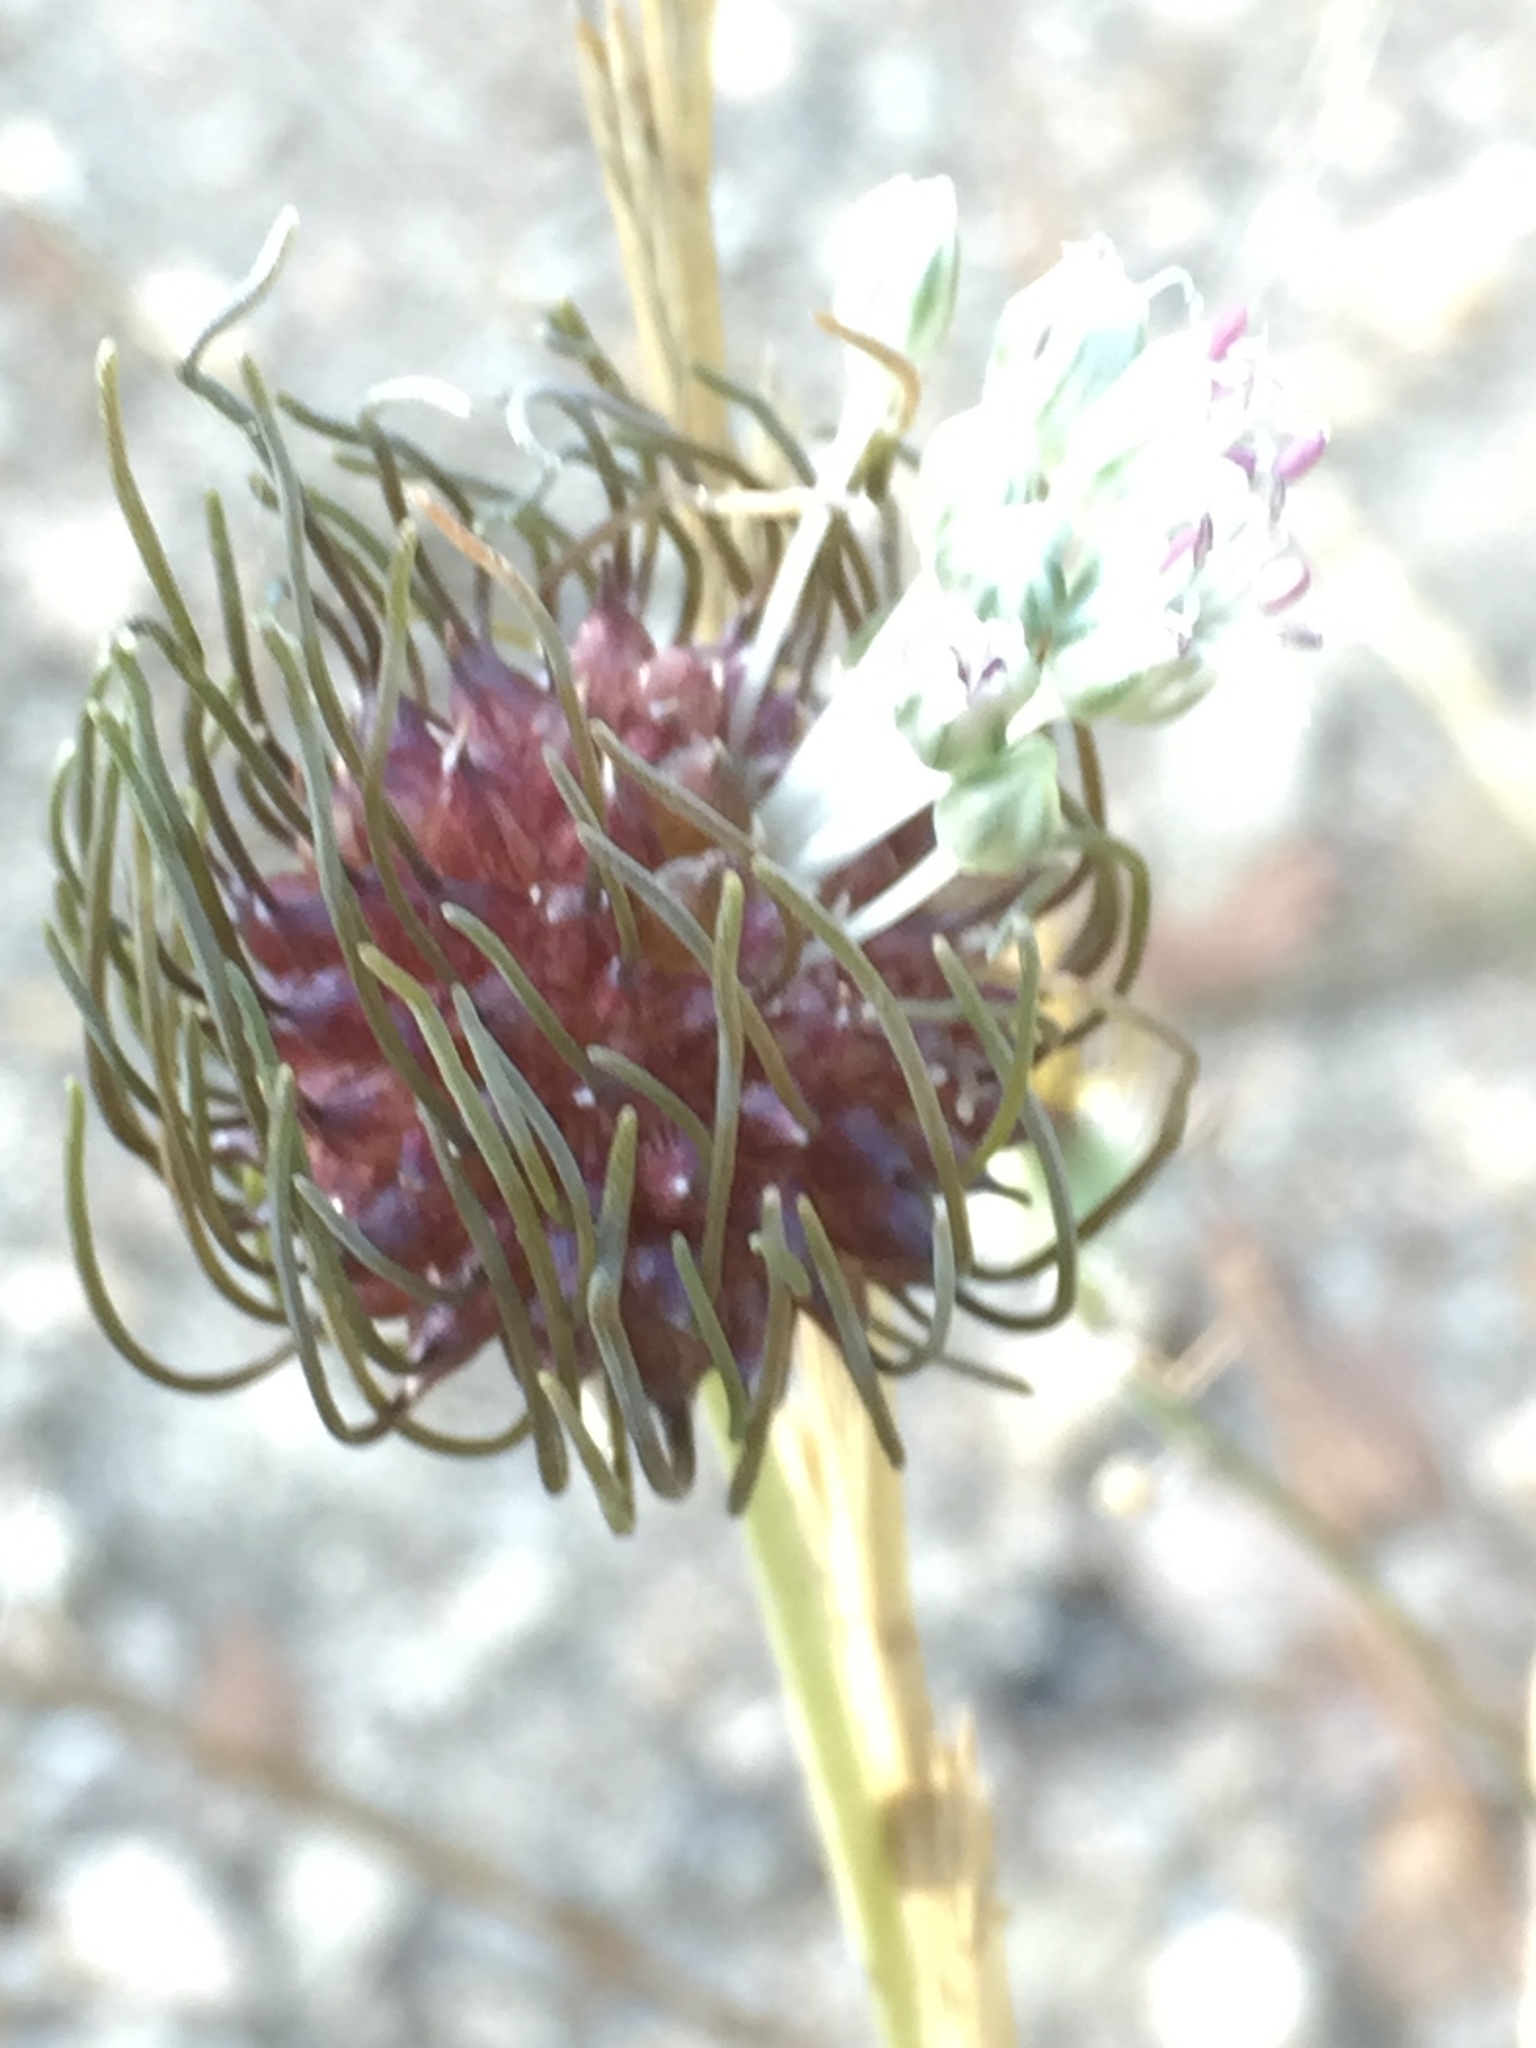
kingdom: Plantae
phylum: Tracheophyta
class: Liliopsida
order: Asparagales
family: Amaryllidaceae
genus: Allium
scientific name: Allium vineale
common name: Crow garlic
